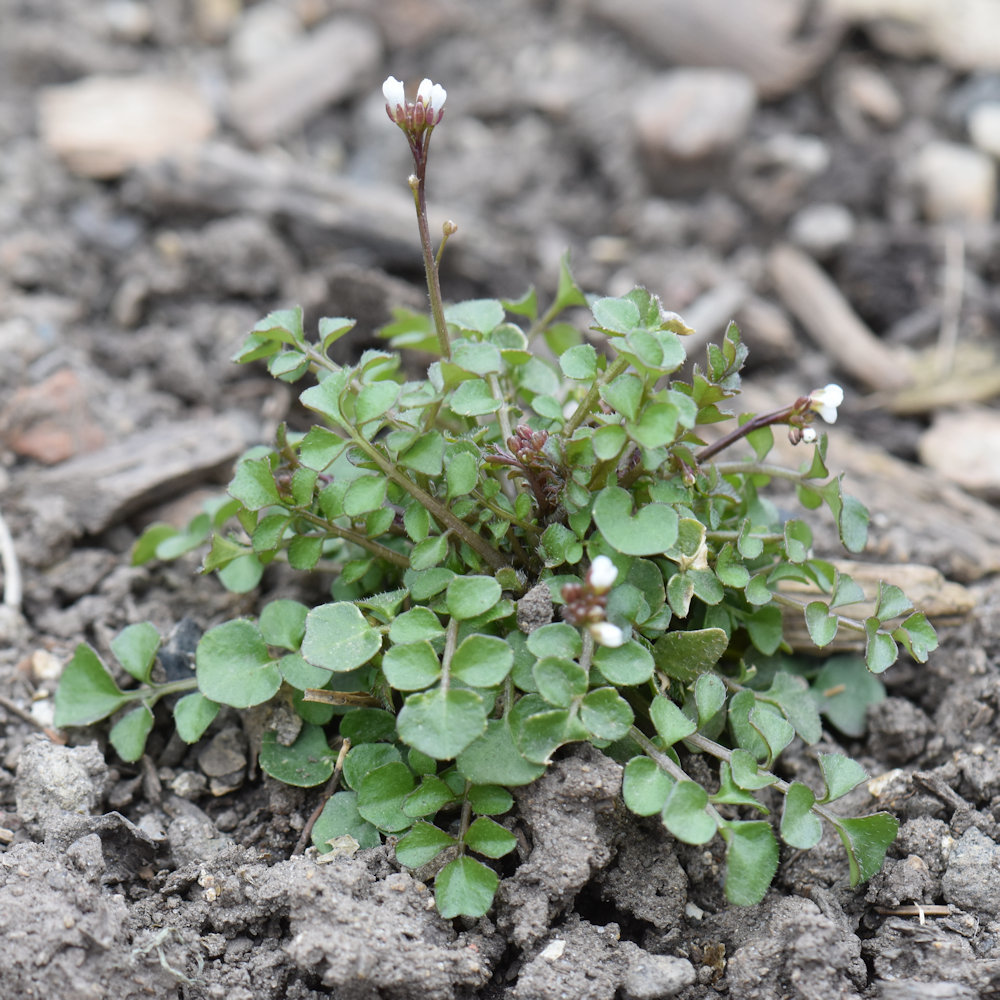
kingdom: Plantae
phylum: Tracheophyta
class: Magnoliopsida
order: Brassicales
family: Brassicaceae
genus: Cardamine
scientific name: Cardamine hirsuta
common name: Hairy bittercress
